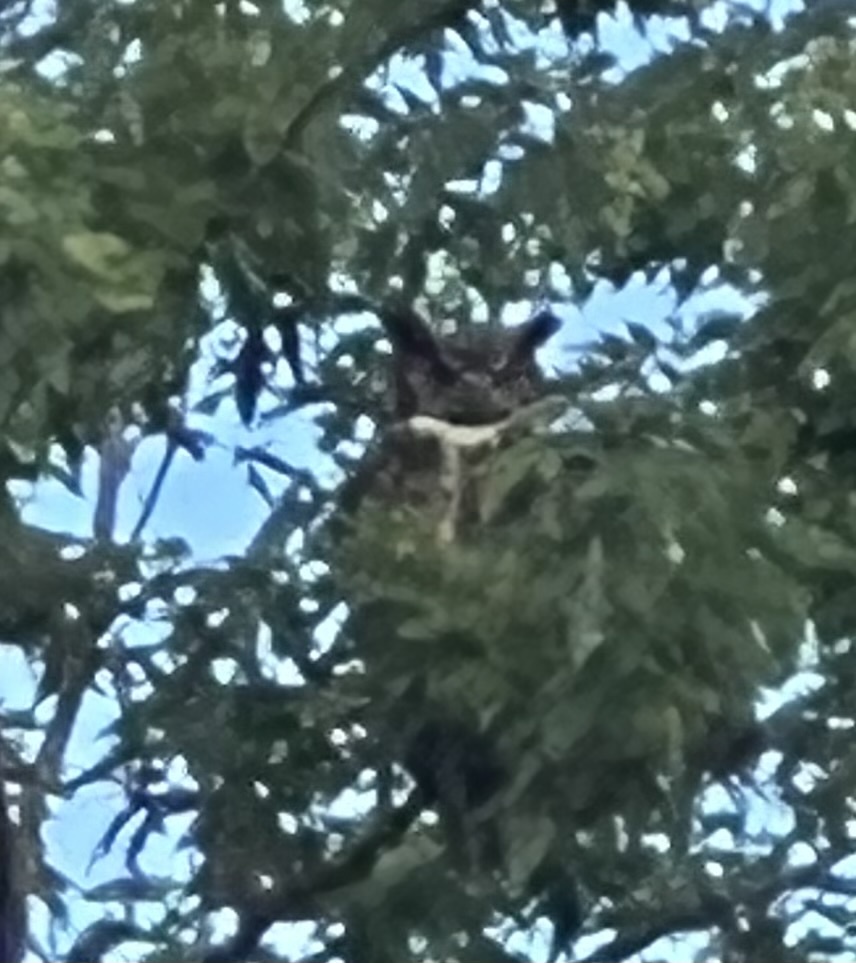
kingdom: Animalia
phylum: Chordata
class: Aves
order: Strigiformes
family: Strigidae
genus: Bubo
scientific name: Bubo virginianus
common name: Great horned owl
